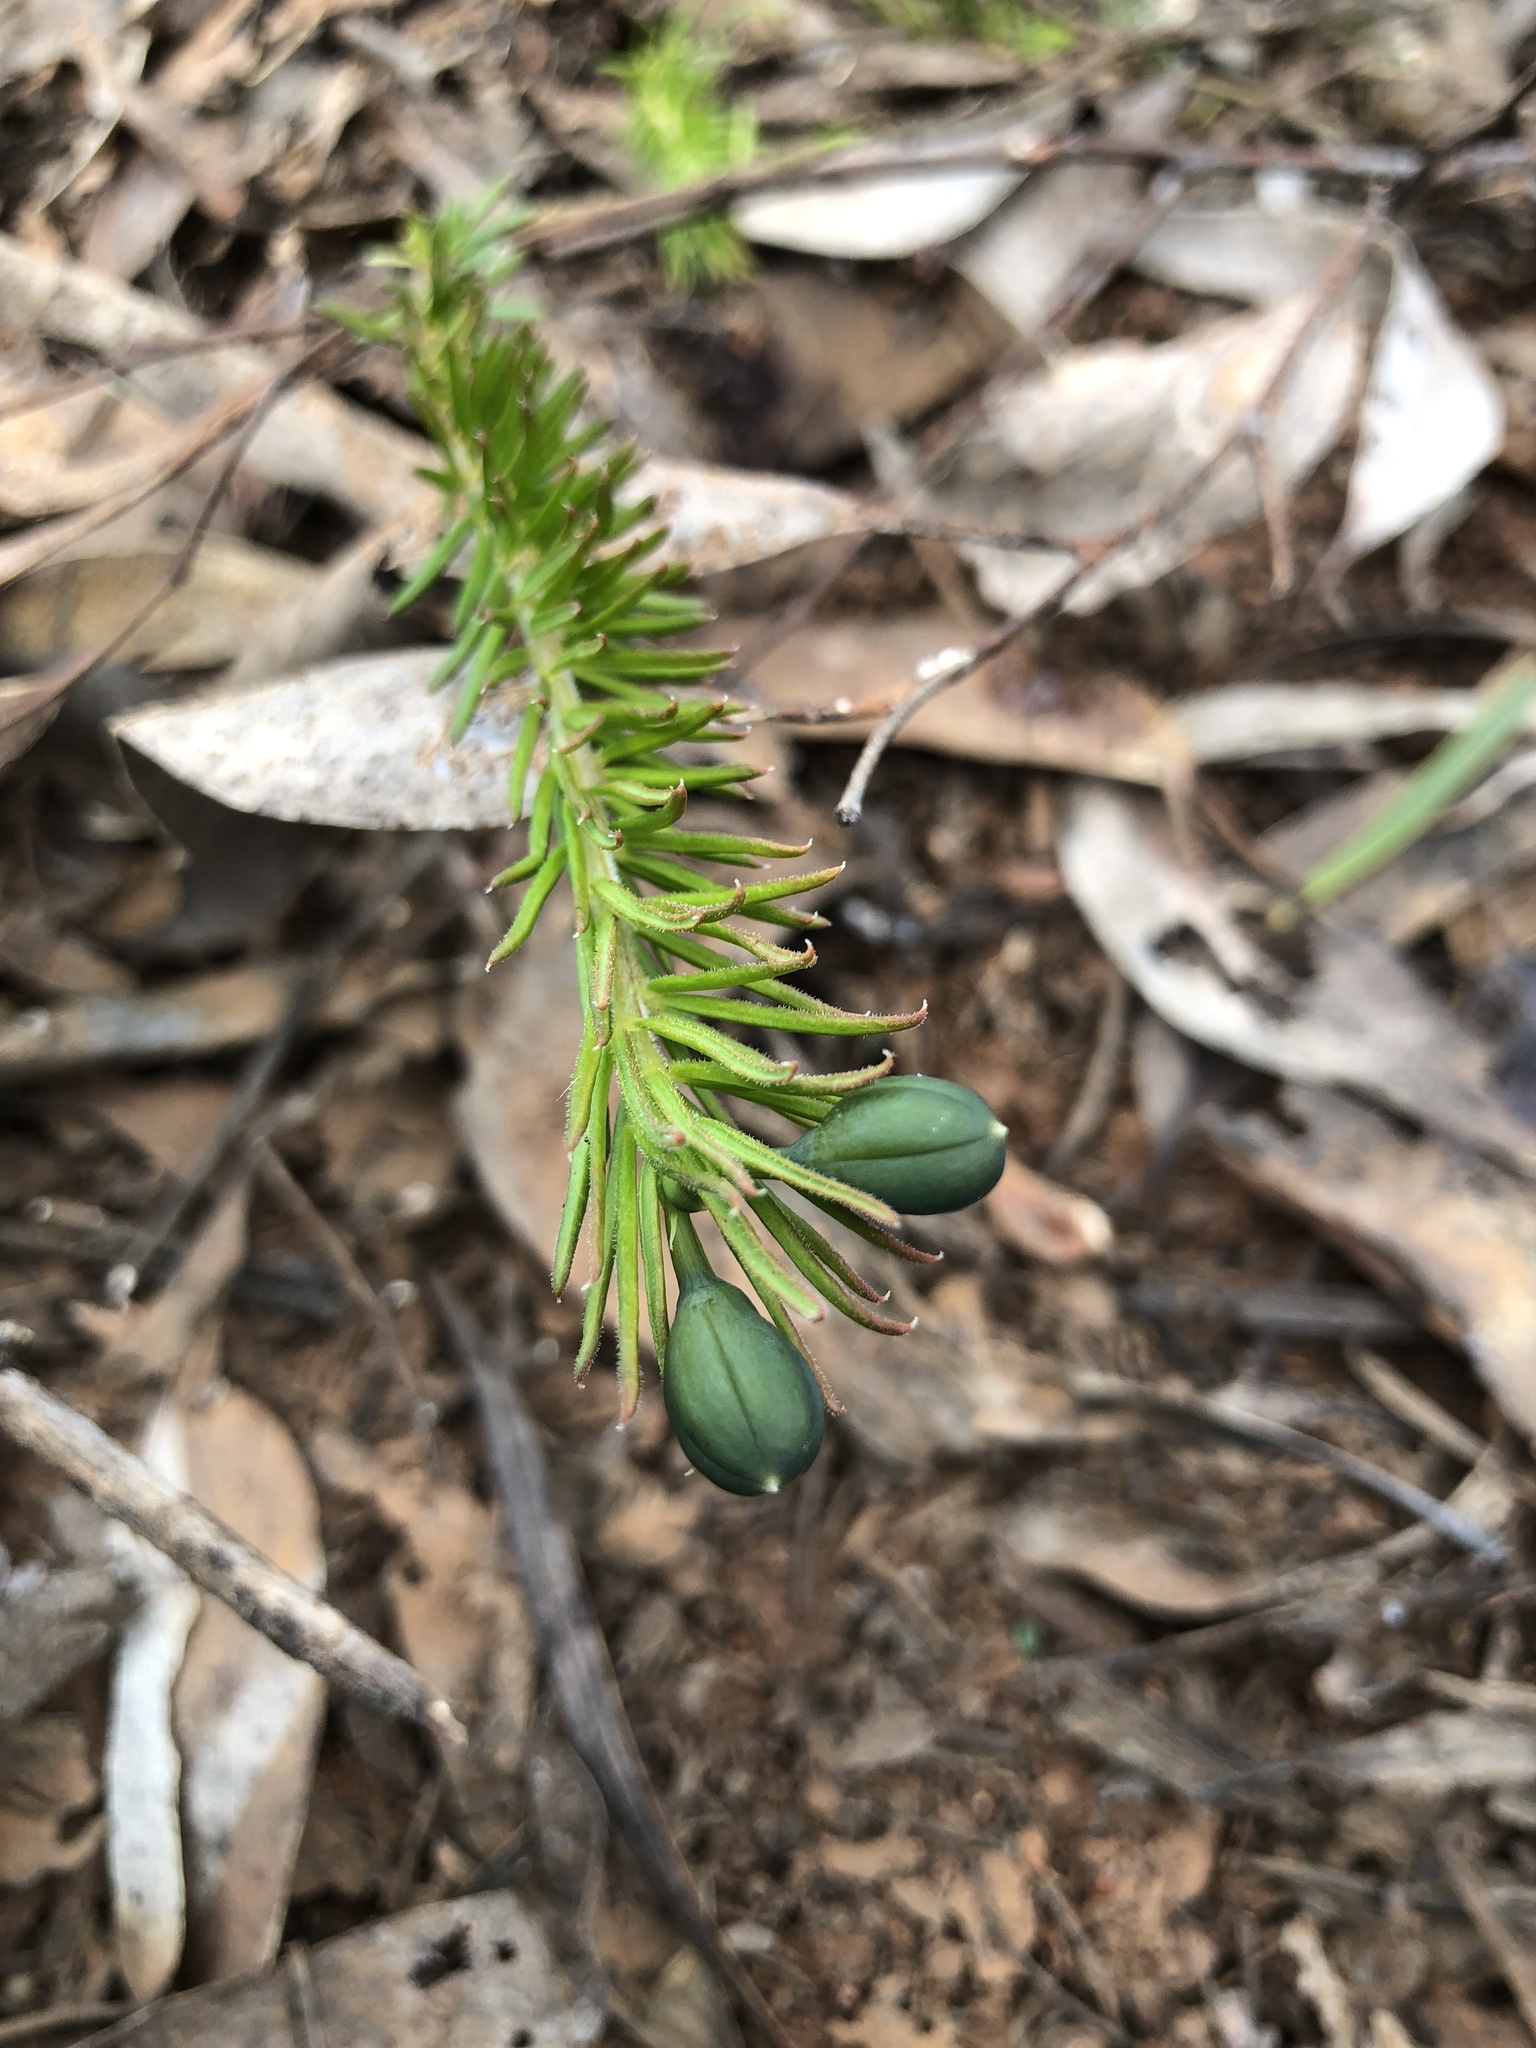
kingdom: Plantae
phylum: Tracheophyta
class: Magnoliopsida
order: Fabales
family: Fabaceae
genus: Gompholobium
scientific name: Gompholobium ecostatum
